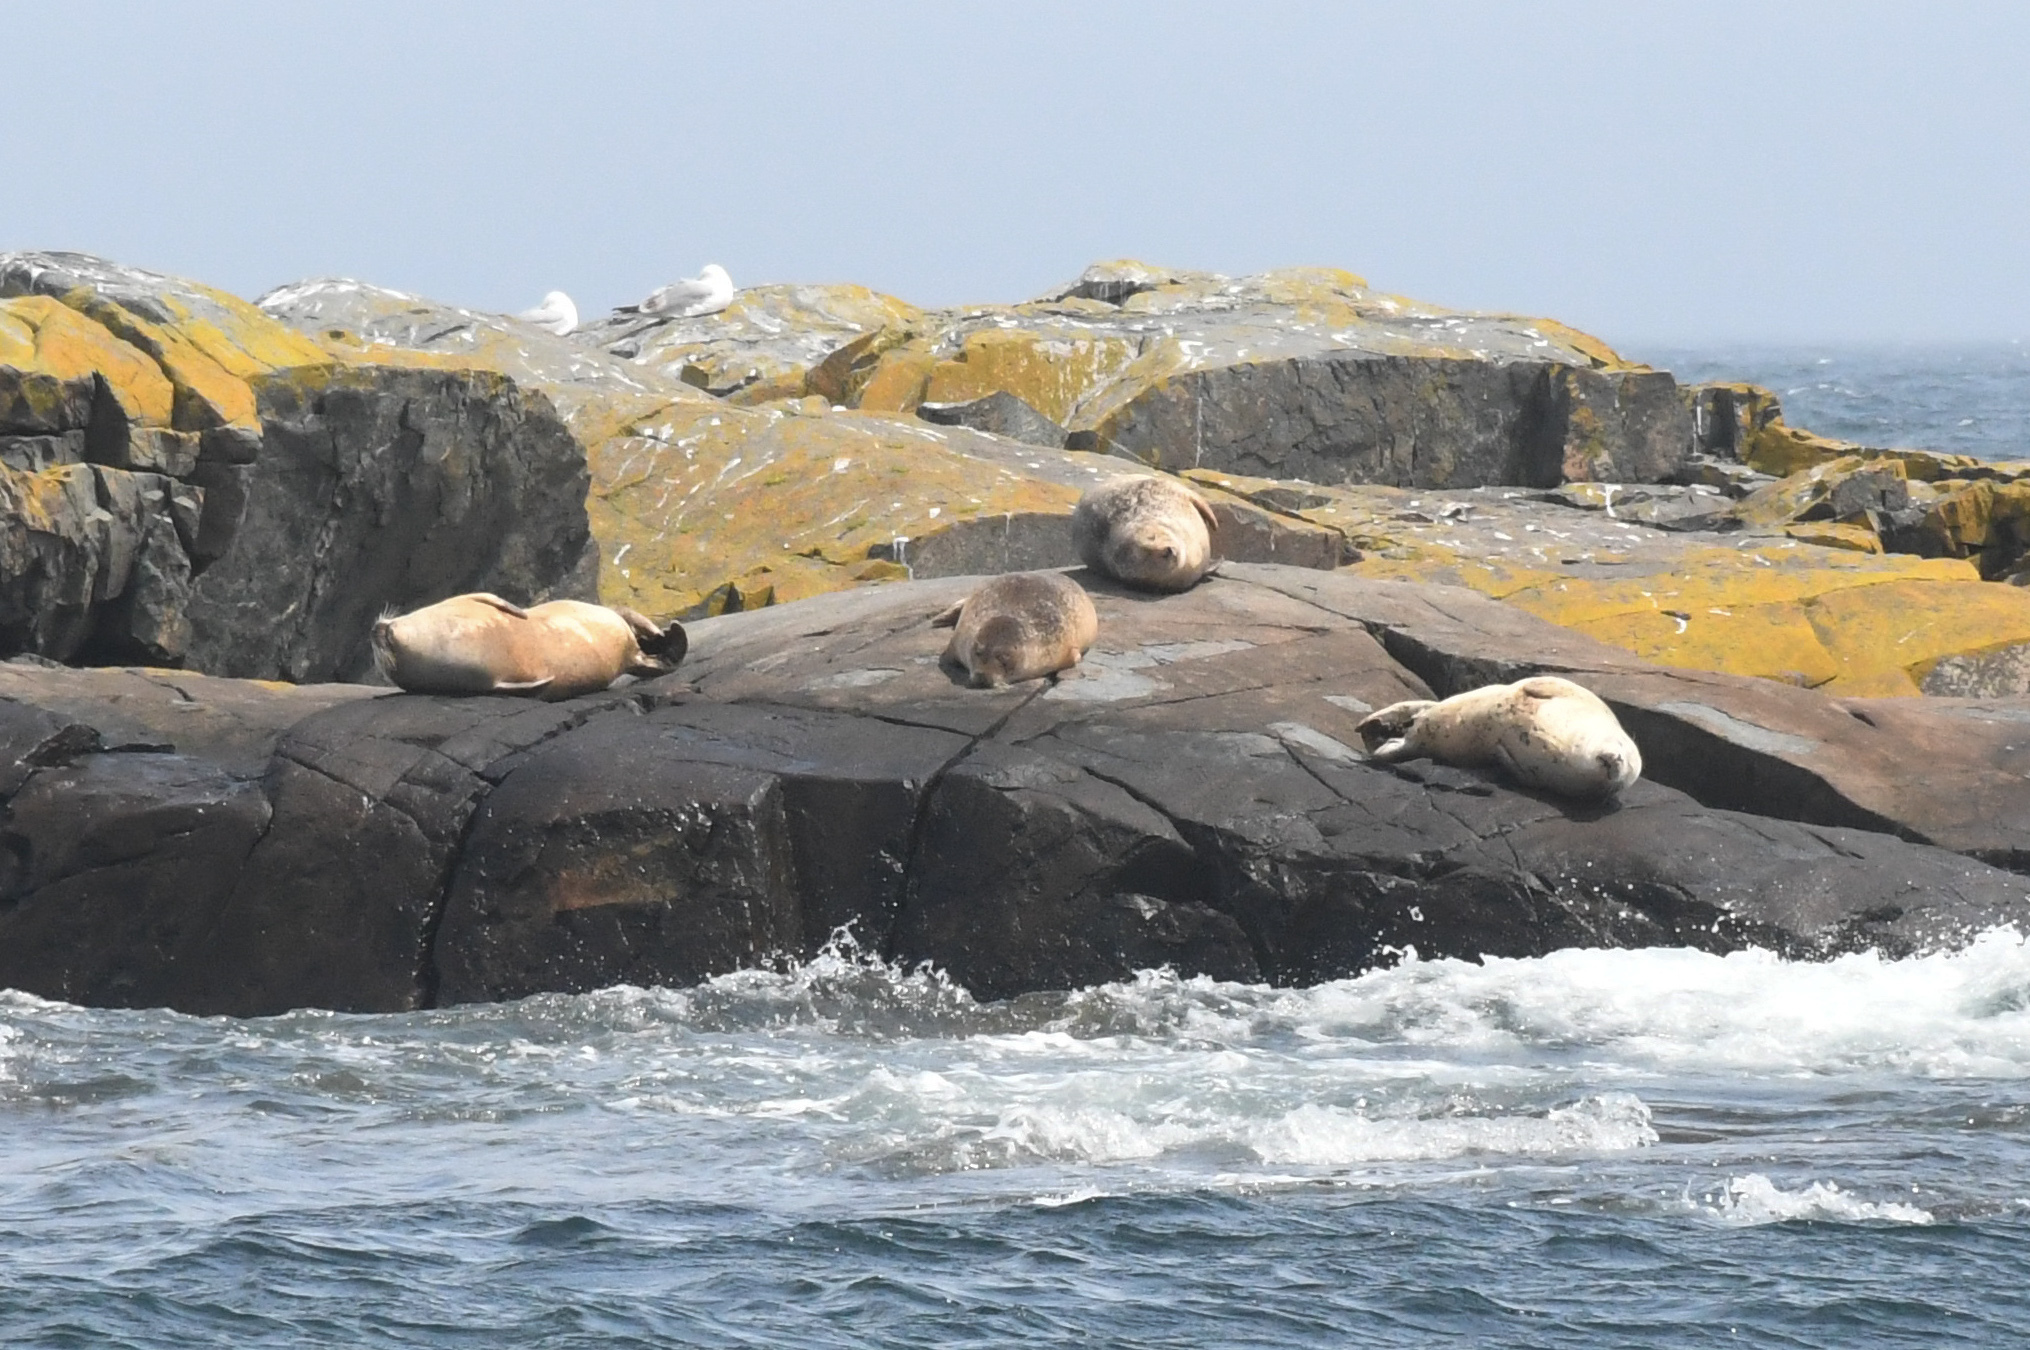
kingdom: Animalia
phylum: Chordata
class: Mammalia
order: Carnivora
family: Phocidae
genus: Phoca
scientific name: Phoca vitulina
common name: Harbor seal
